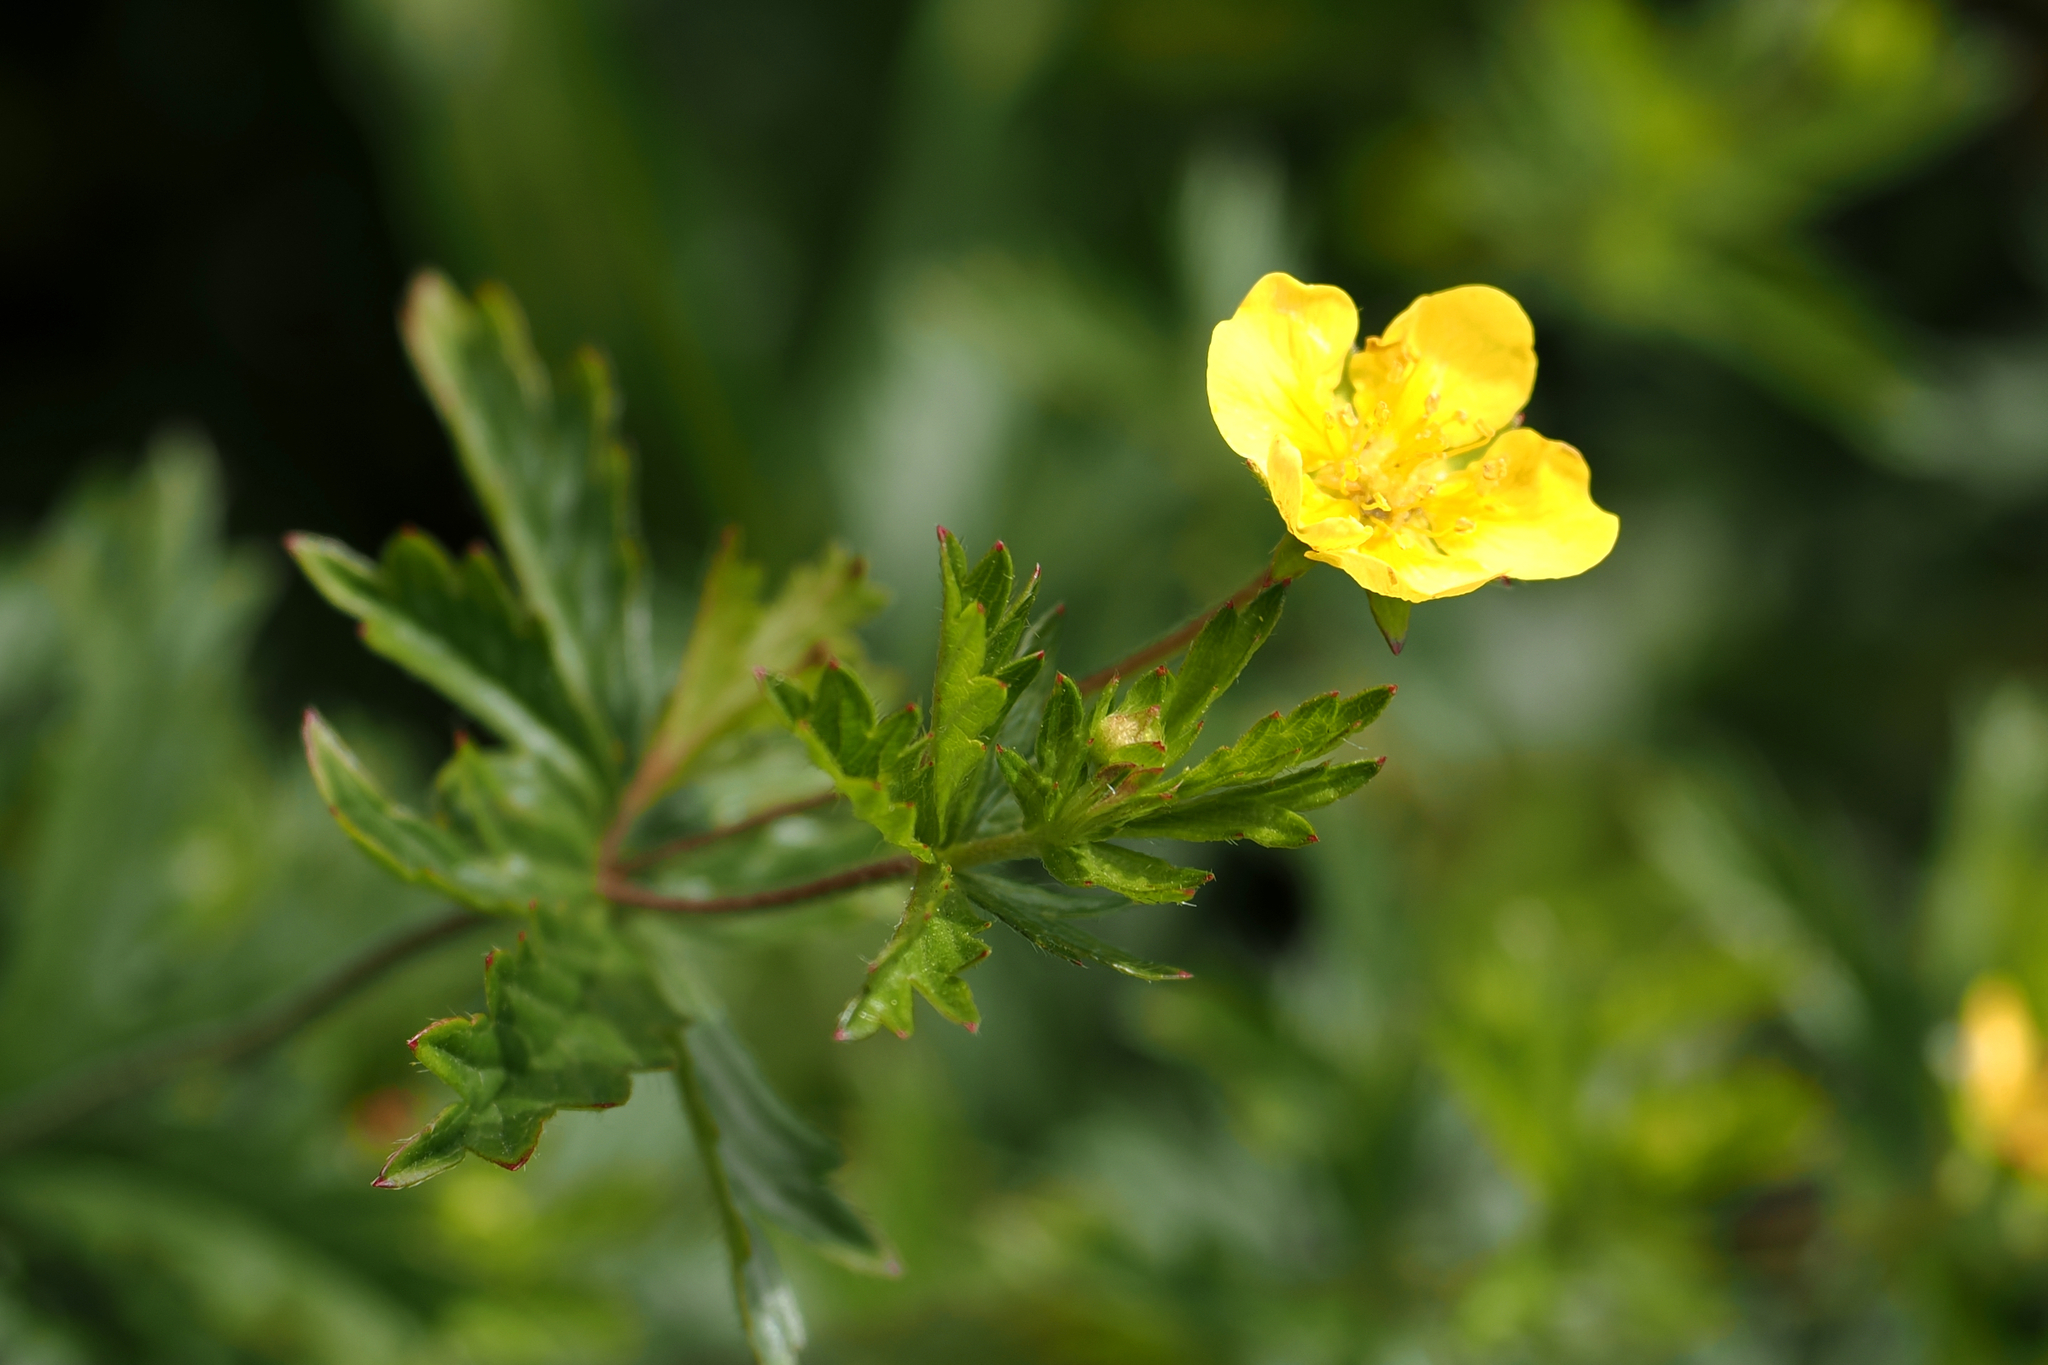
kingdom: Plantae
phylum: Tracheophyta
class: Magnoliopsida
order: Rosales
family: Rosaceae
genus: Potentilla
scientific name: Potentilla erecta
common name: Tormentil
